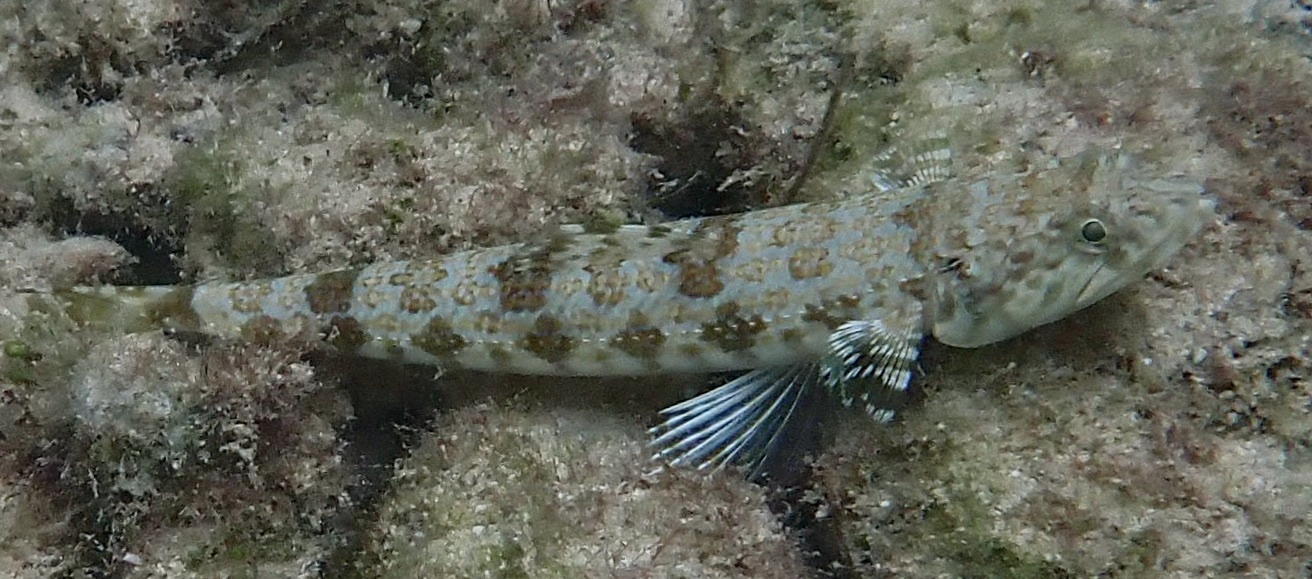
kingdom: Animalia
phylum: Chordata
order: Aulopiformes
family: Synodontidae
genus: Synodus
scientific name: Synodus intermedius
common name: Sand diver
